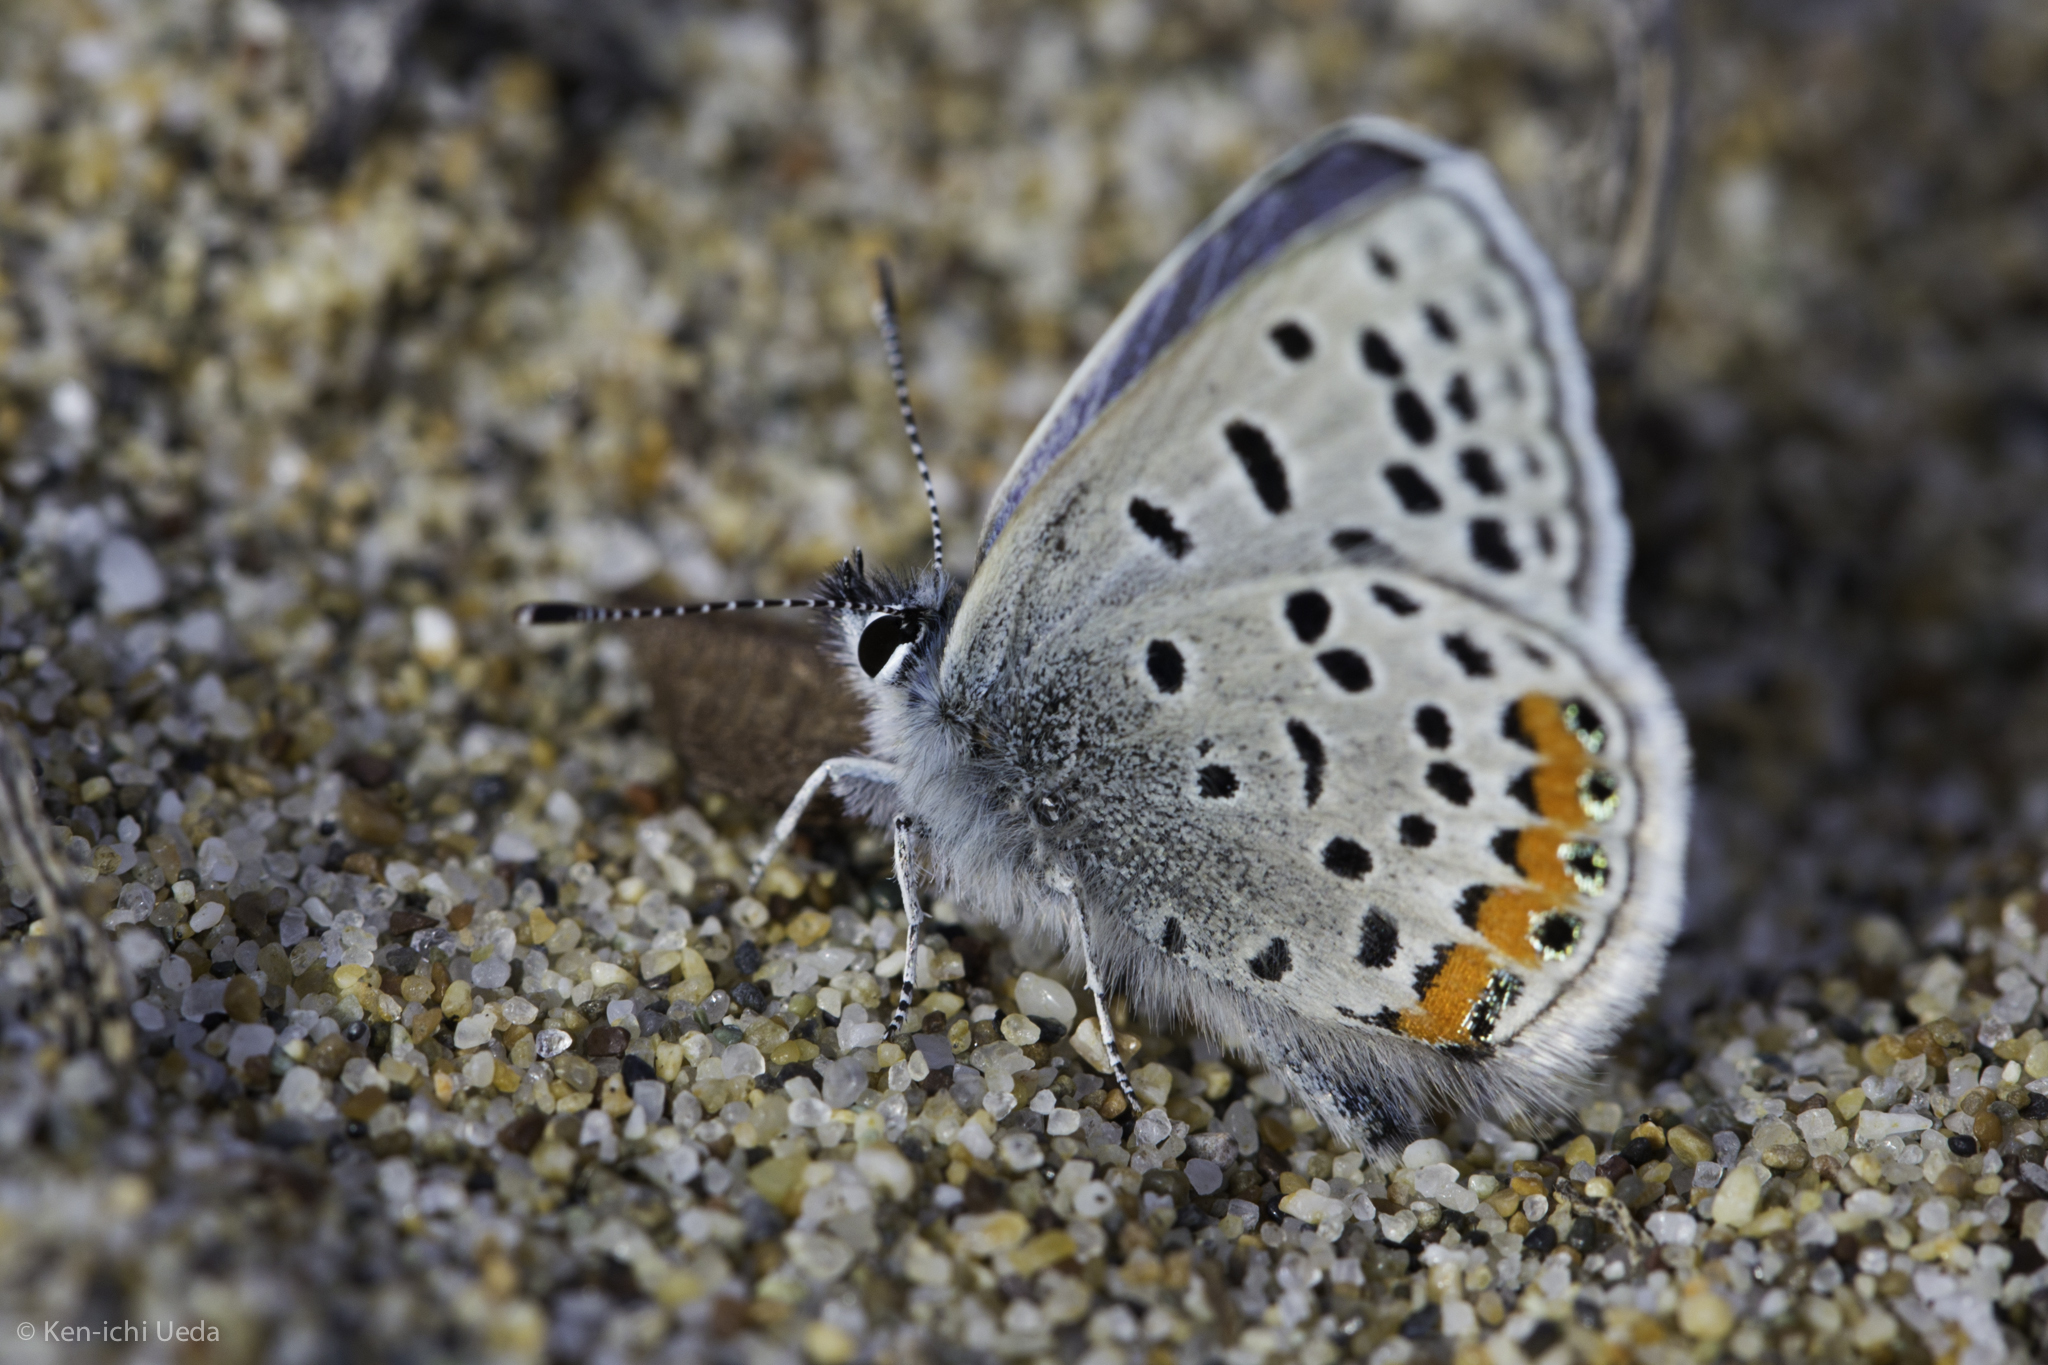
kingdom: Animalia
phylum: Arthropoda
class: Insecta
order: Lepidoptera
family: Lycaenidae
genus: Icaricia
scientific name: Icaricia acmon
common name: Acmon blue
